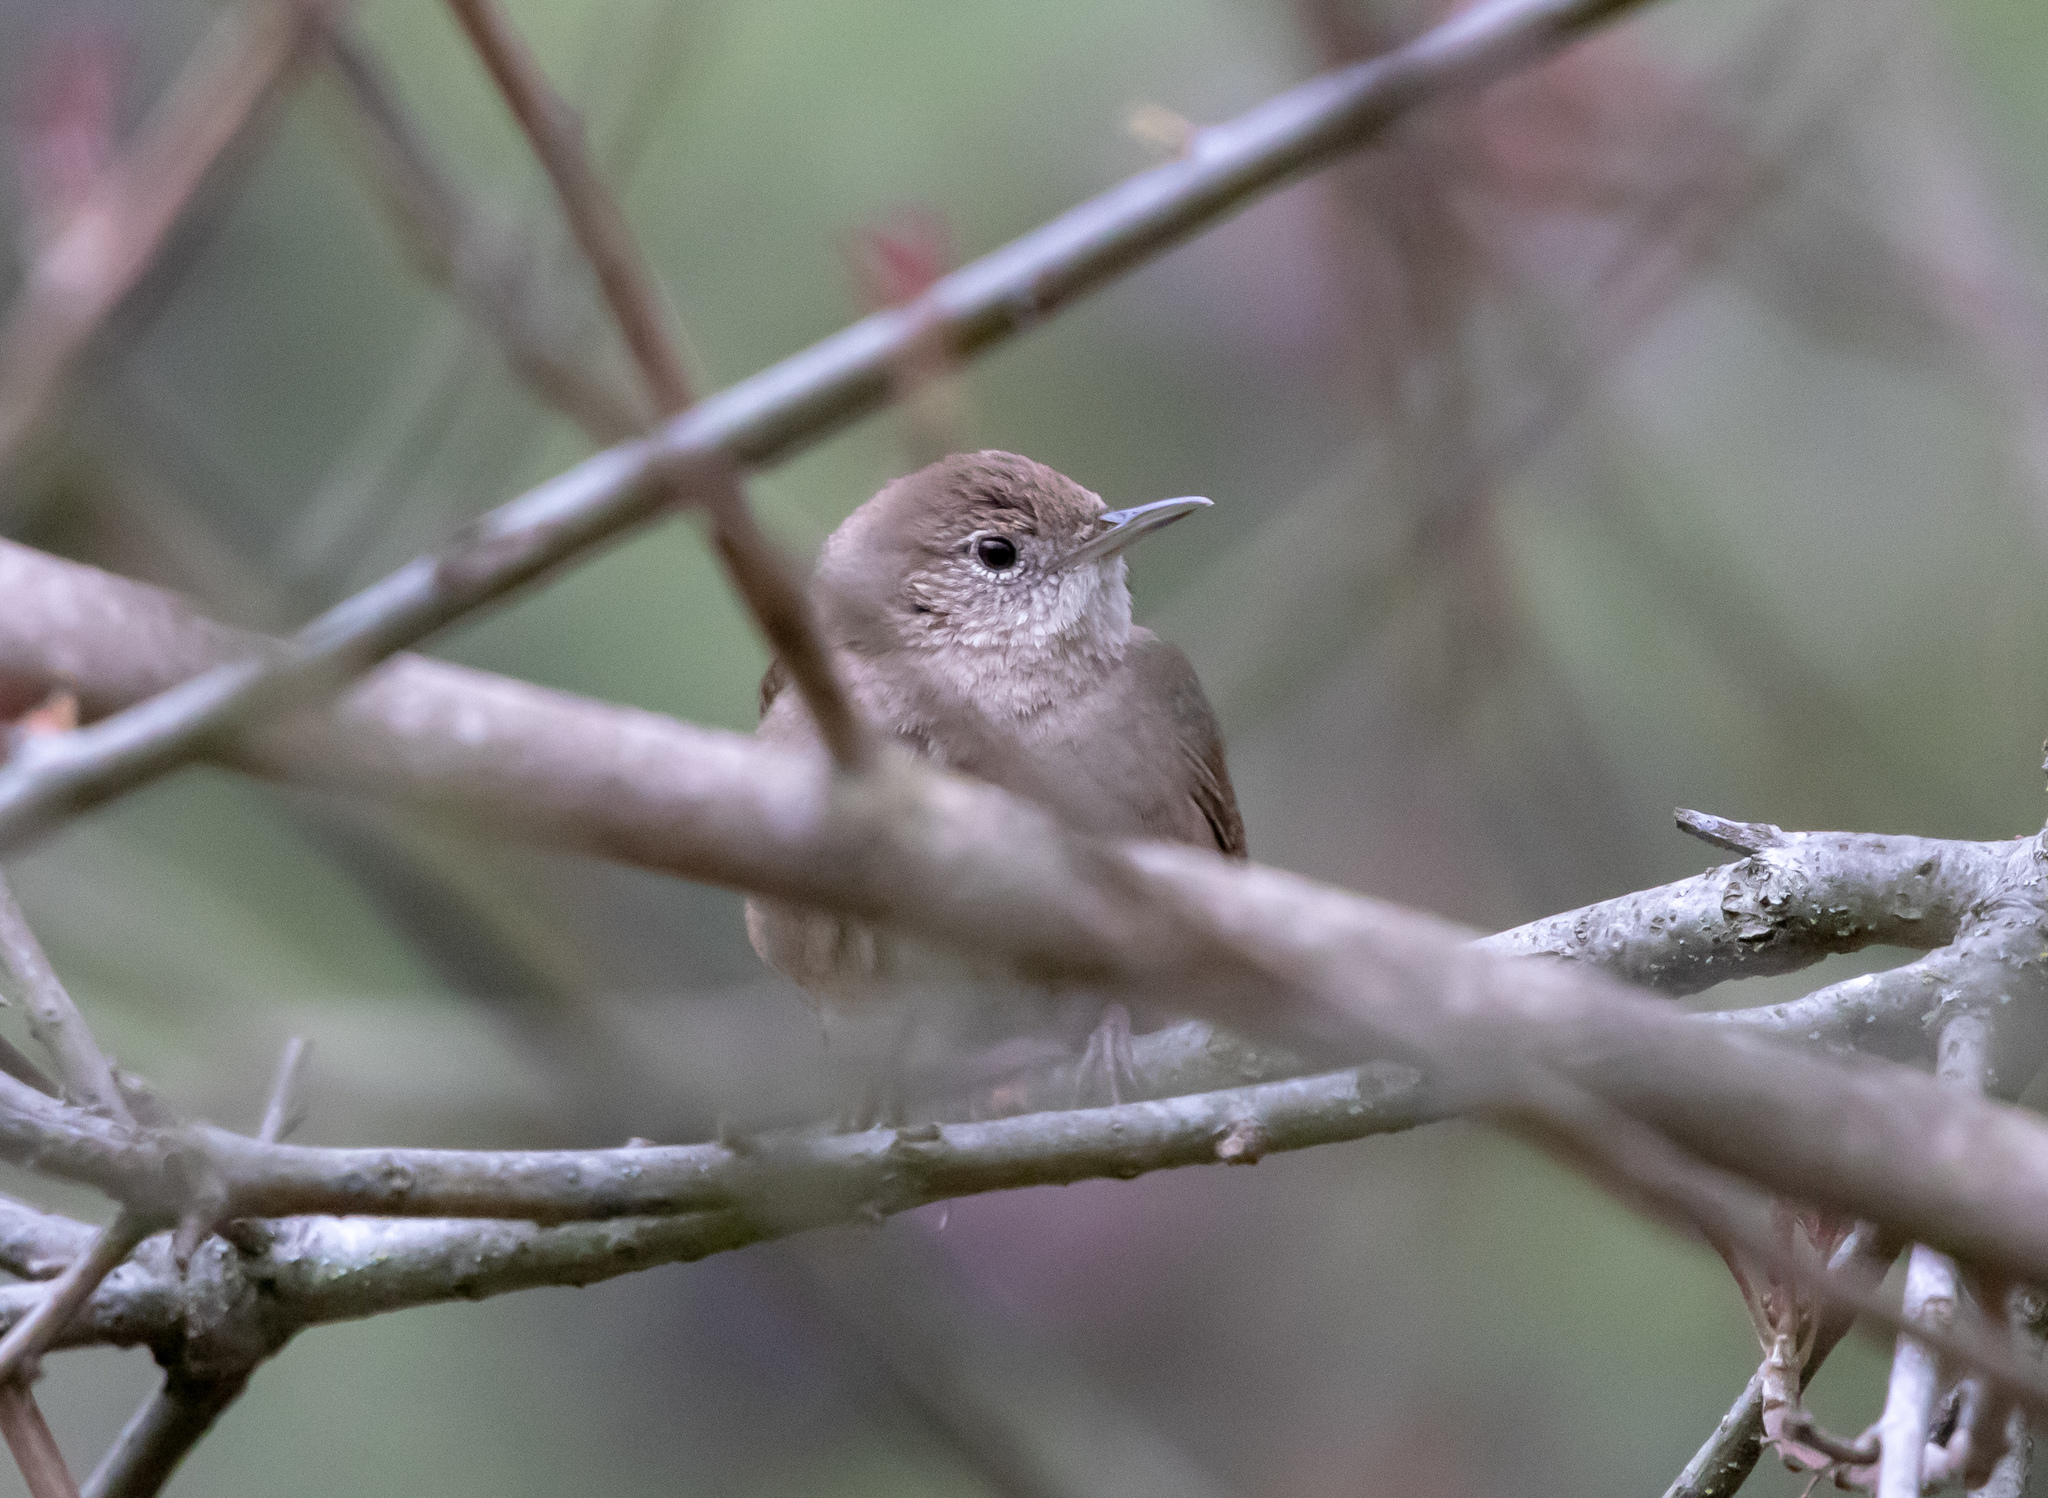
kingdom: Animalia
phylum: Chordata
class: Aves
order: Passeriformes
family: Troglodytidae
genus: Troglodytes
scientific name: Troglodytes aedon
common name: House wren
